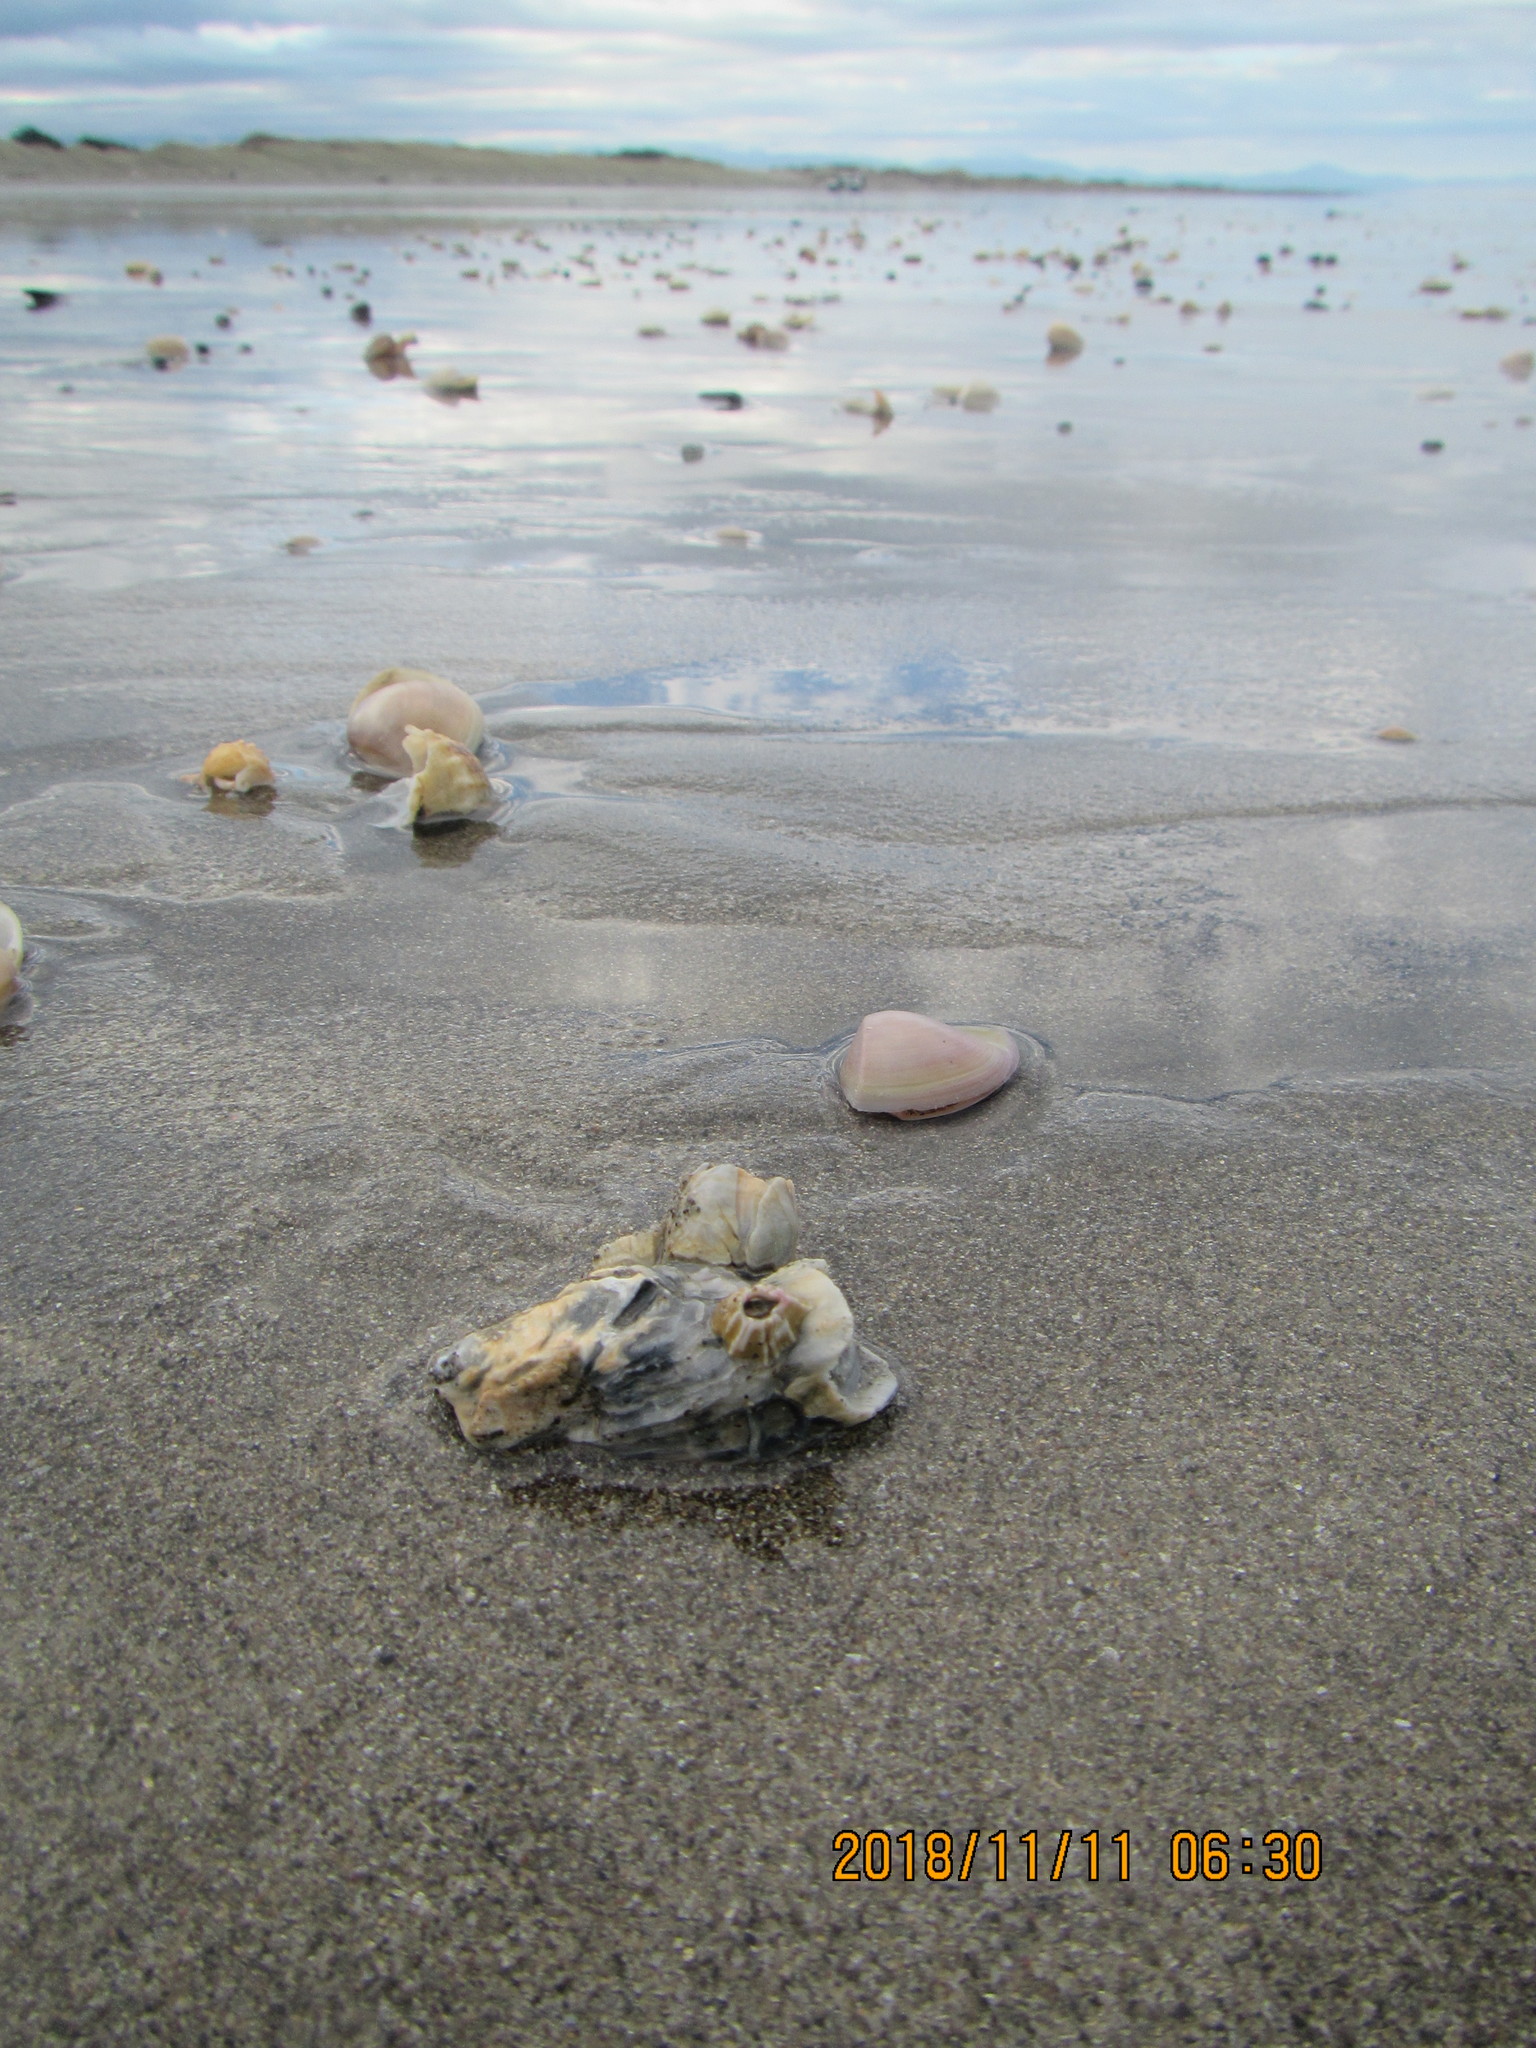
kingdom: Animalia
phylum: Mollusca
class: Bivalvia
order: Ostreida
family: Ostreidae
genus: Magallana
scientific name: Magallana gigas
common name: Pacific oyster
